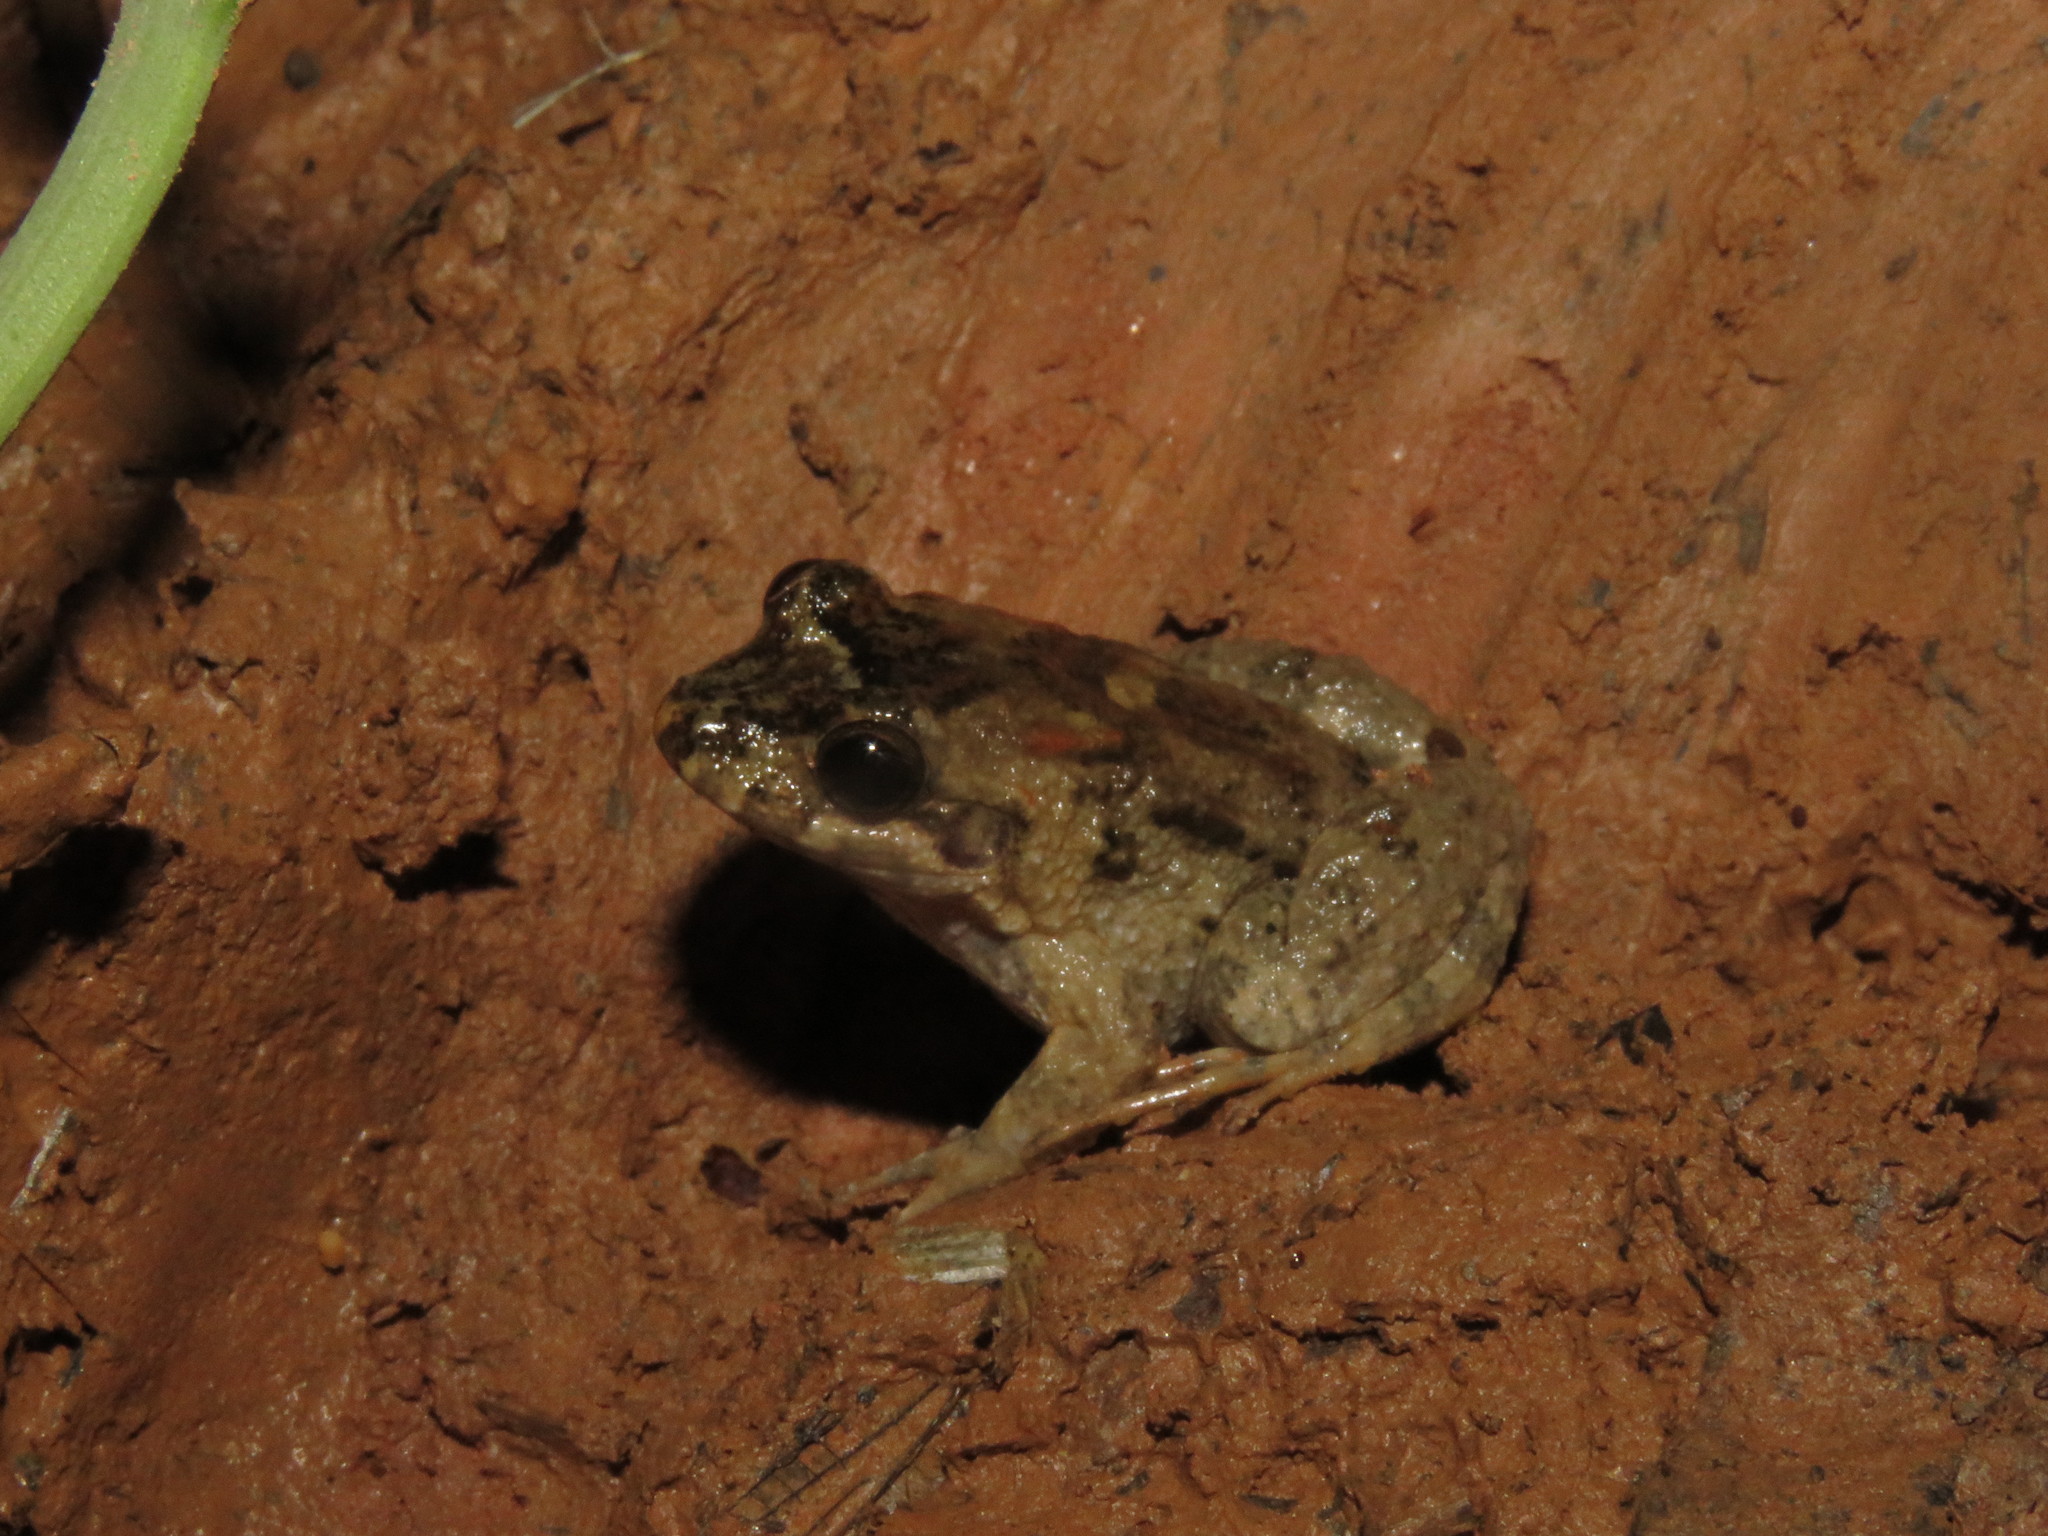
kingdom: Animalia
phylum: Chordata
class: Amphibia
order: Anura
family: Leptodactylidae
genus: Leptodactylus
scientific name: Leptodactylus griseigularis
